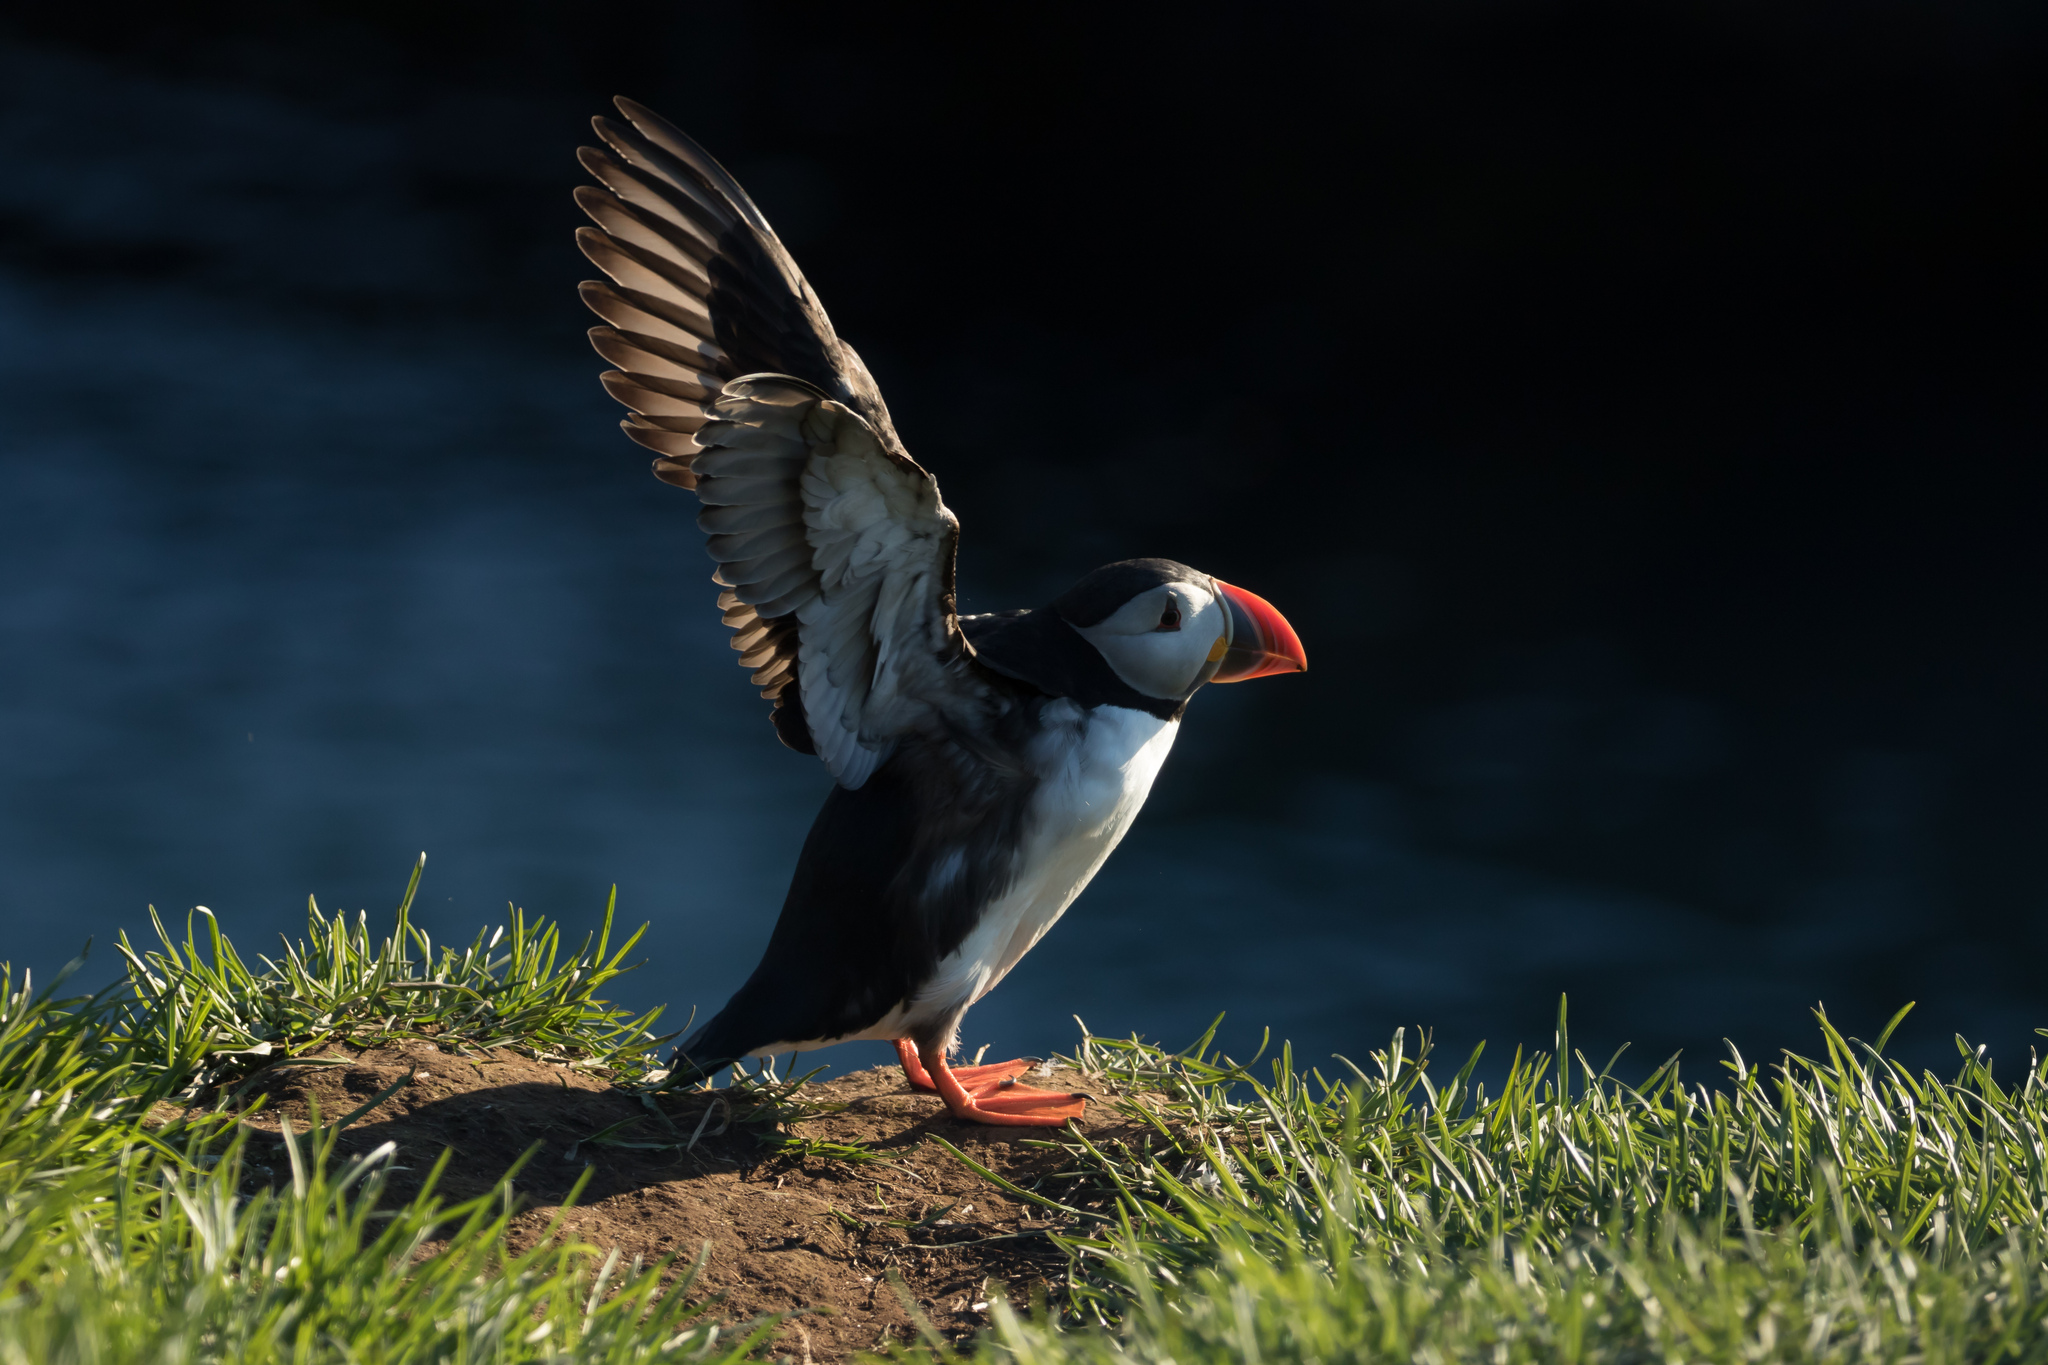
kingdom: Animalia
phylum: Chordata
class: Aves
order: Charadriiformes
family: Alcidae
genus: Fratercula
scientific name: Fratercula arctica
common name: Atlantic puffin
